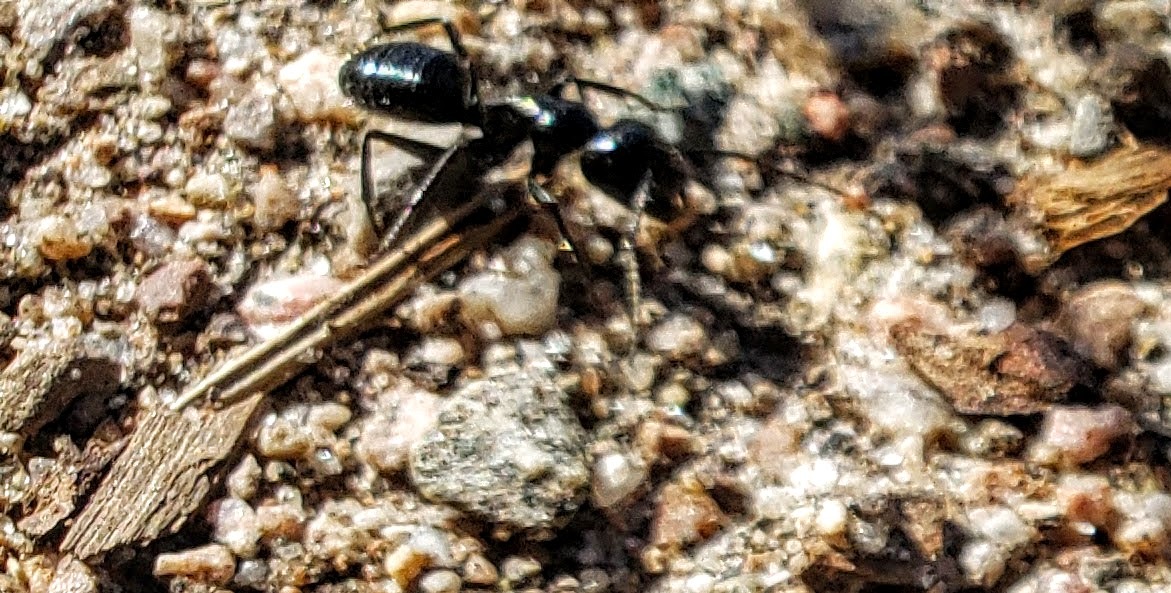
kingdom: Animalia
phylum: Arthropoda
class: Insecta
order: Hymenoptera
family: Formicidae
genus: Camponotus
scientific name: Camponotus
